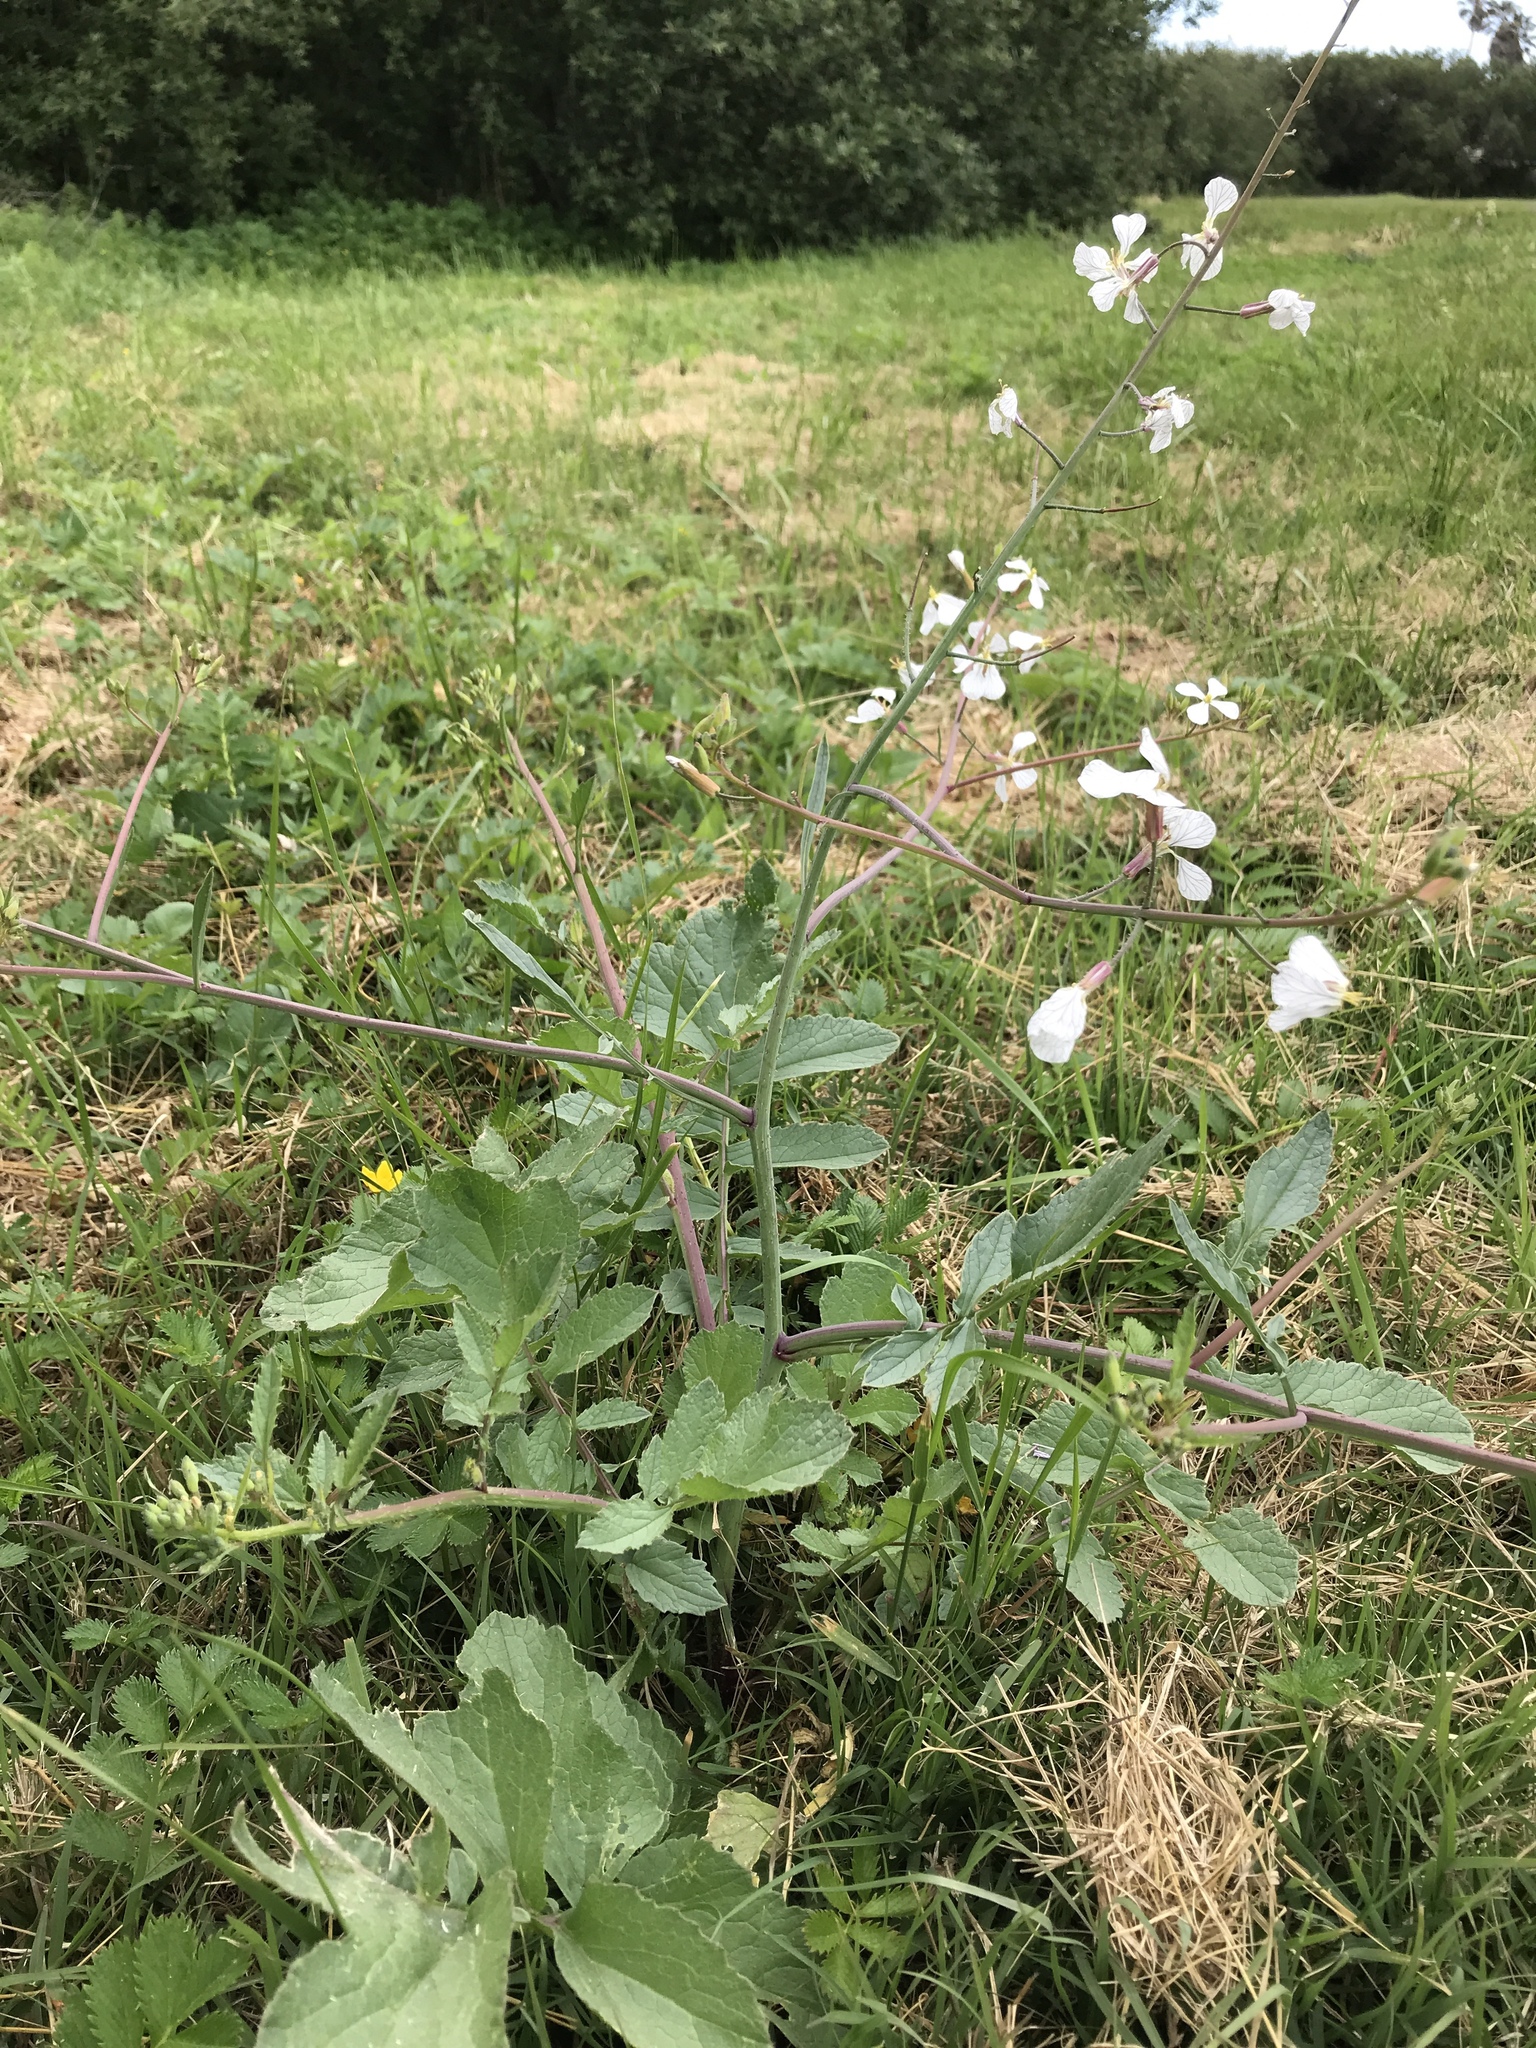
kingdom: Plantae
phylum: Tracheophyta
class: Magnoliopsida
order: Brassicales
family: Brassicaceae
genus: Raphanus
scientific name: Raphanus sativus
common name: Cultivated radish
